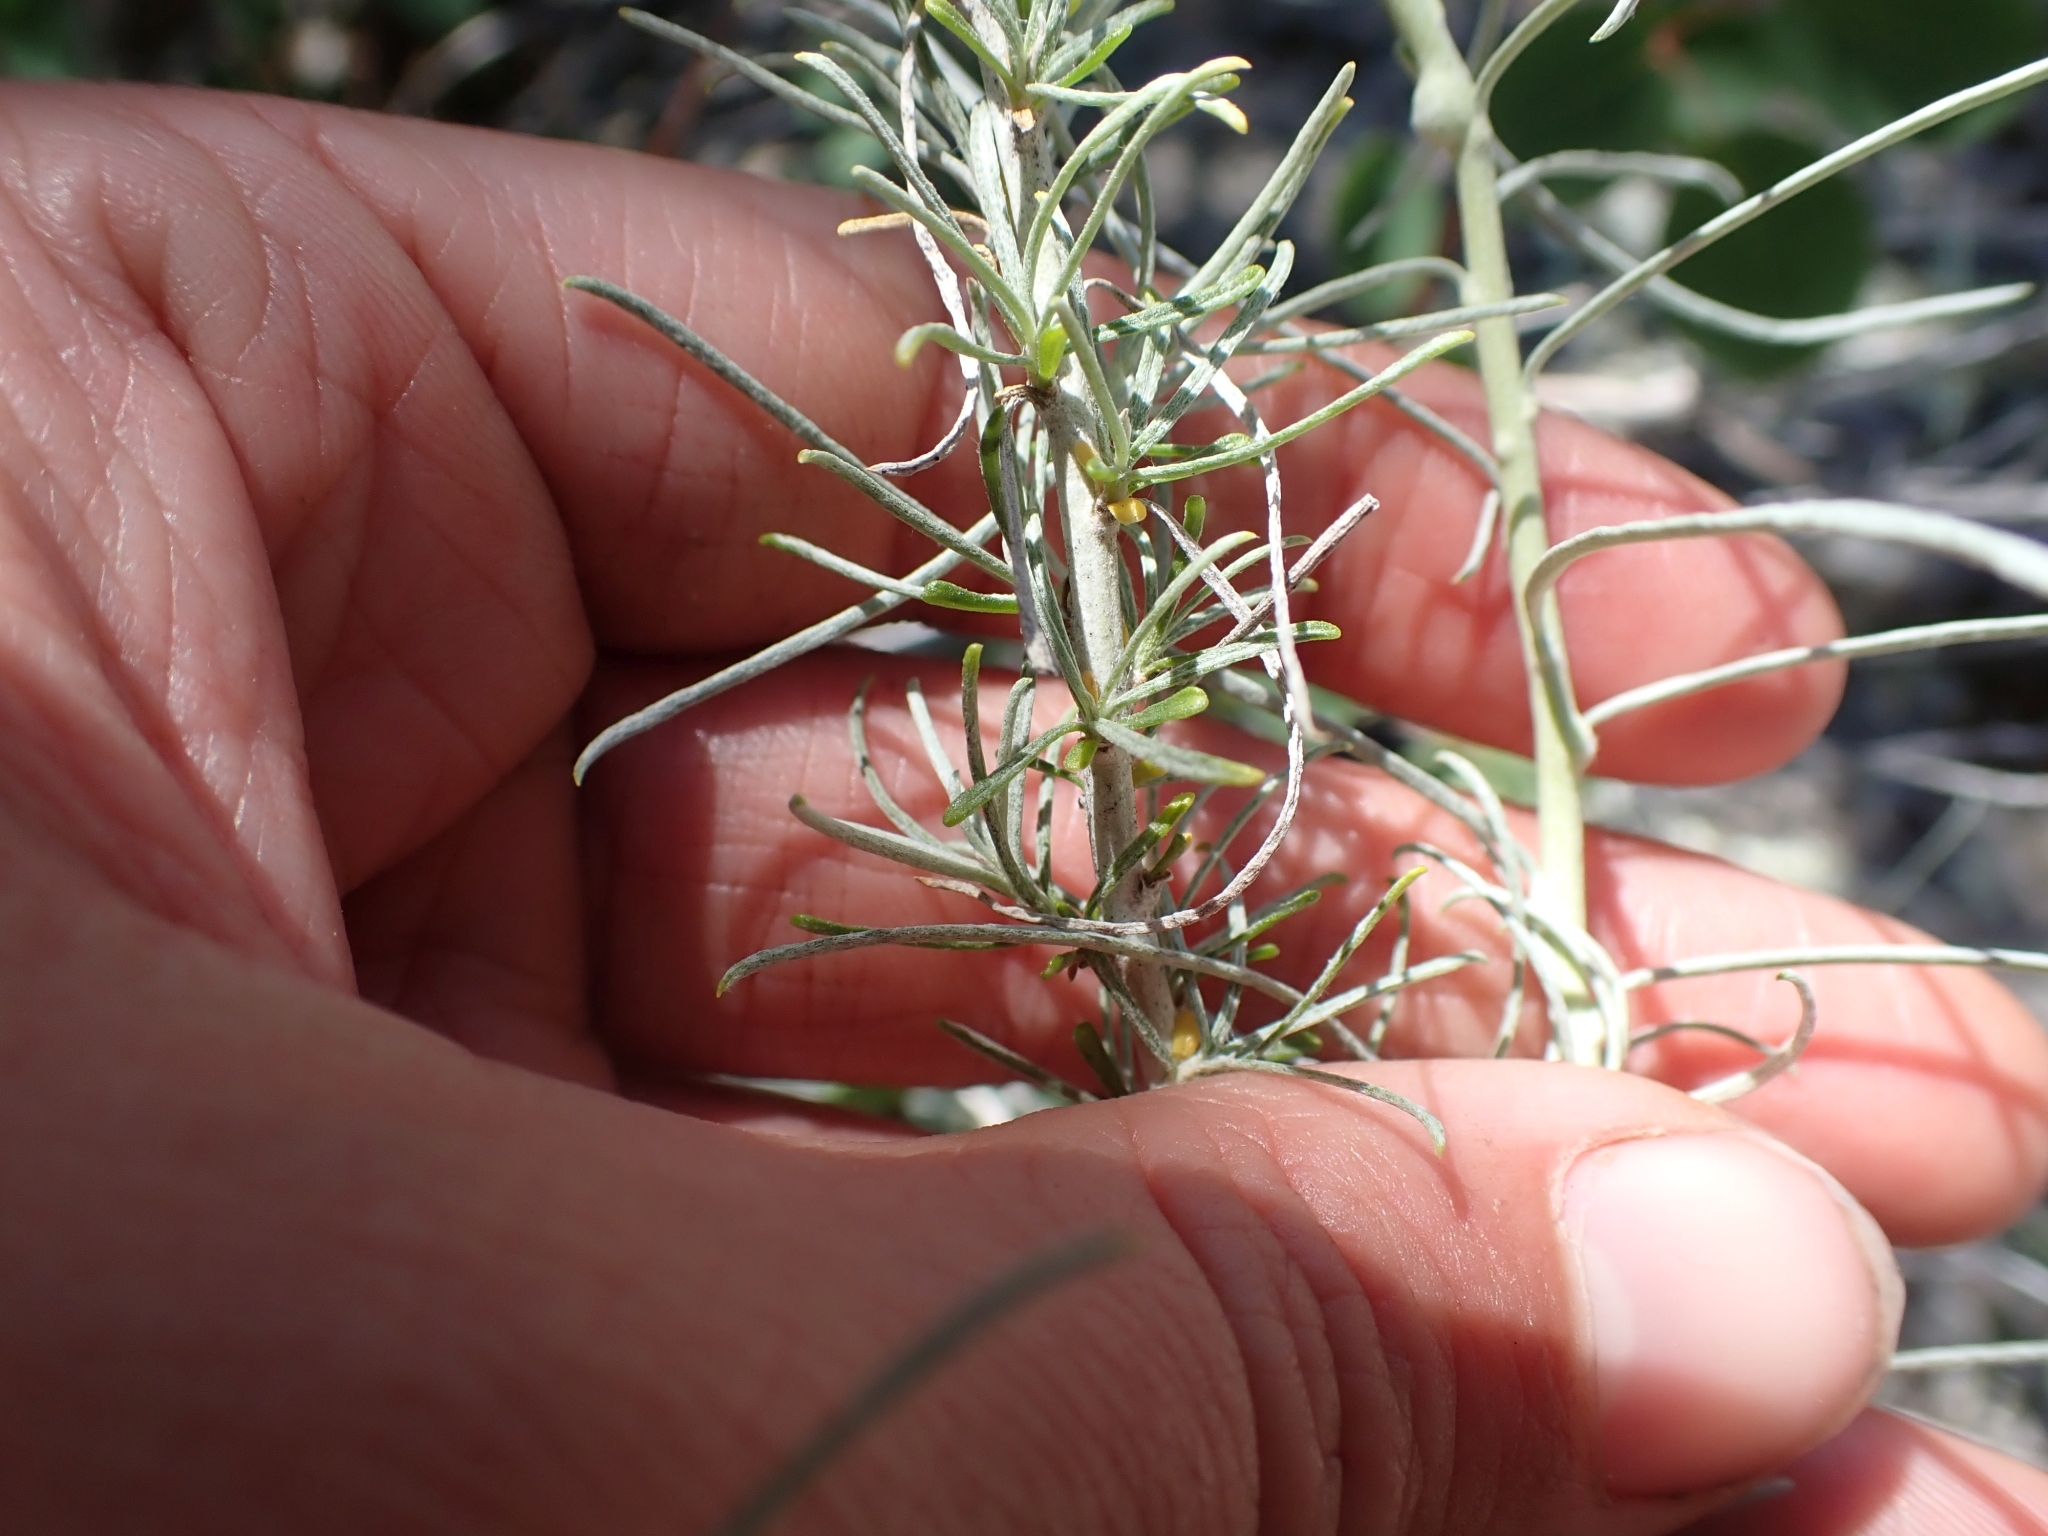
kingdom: Plantae
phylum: Tracheophyta
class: Magnoliopsida
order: Asterales
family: Asteraceae
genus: Ericameria
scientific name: Ericameria nauseosa
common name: Rubber rabbitbrush
